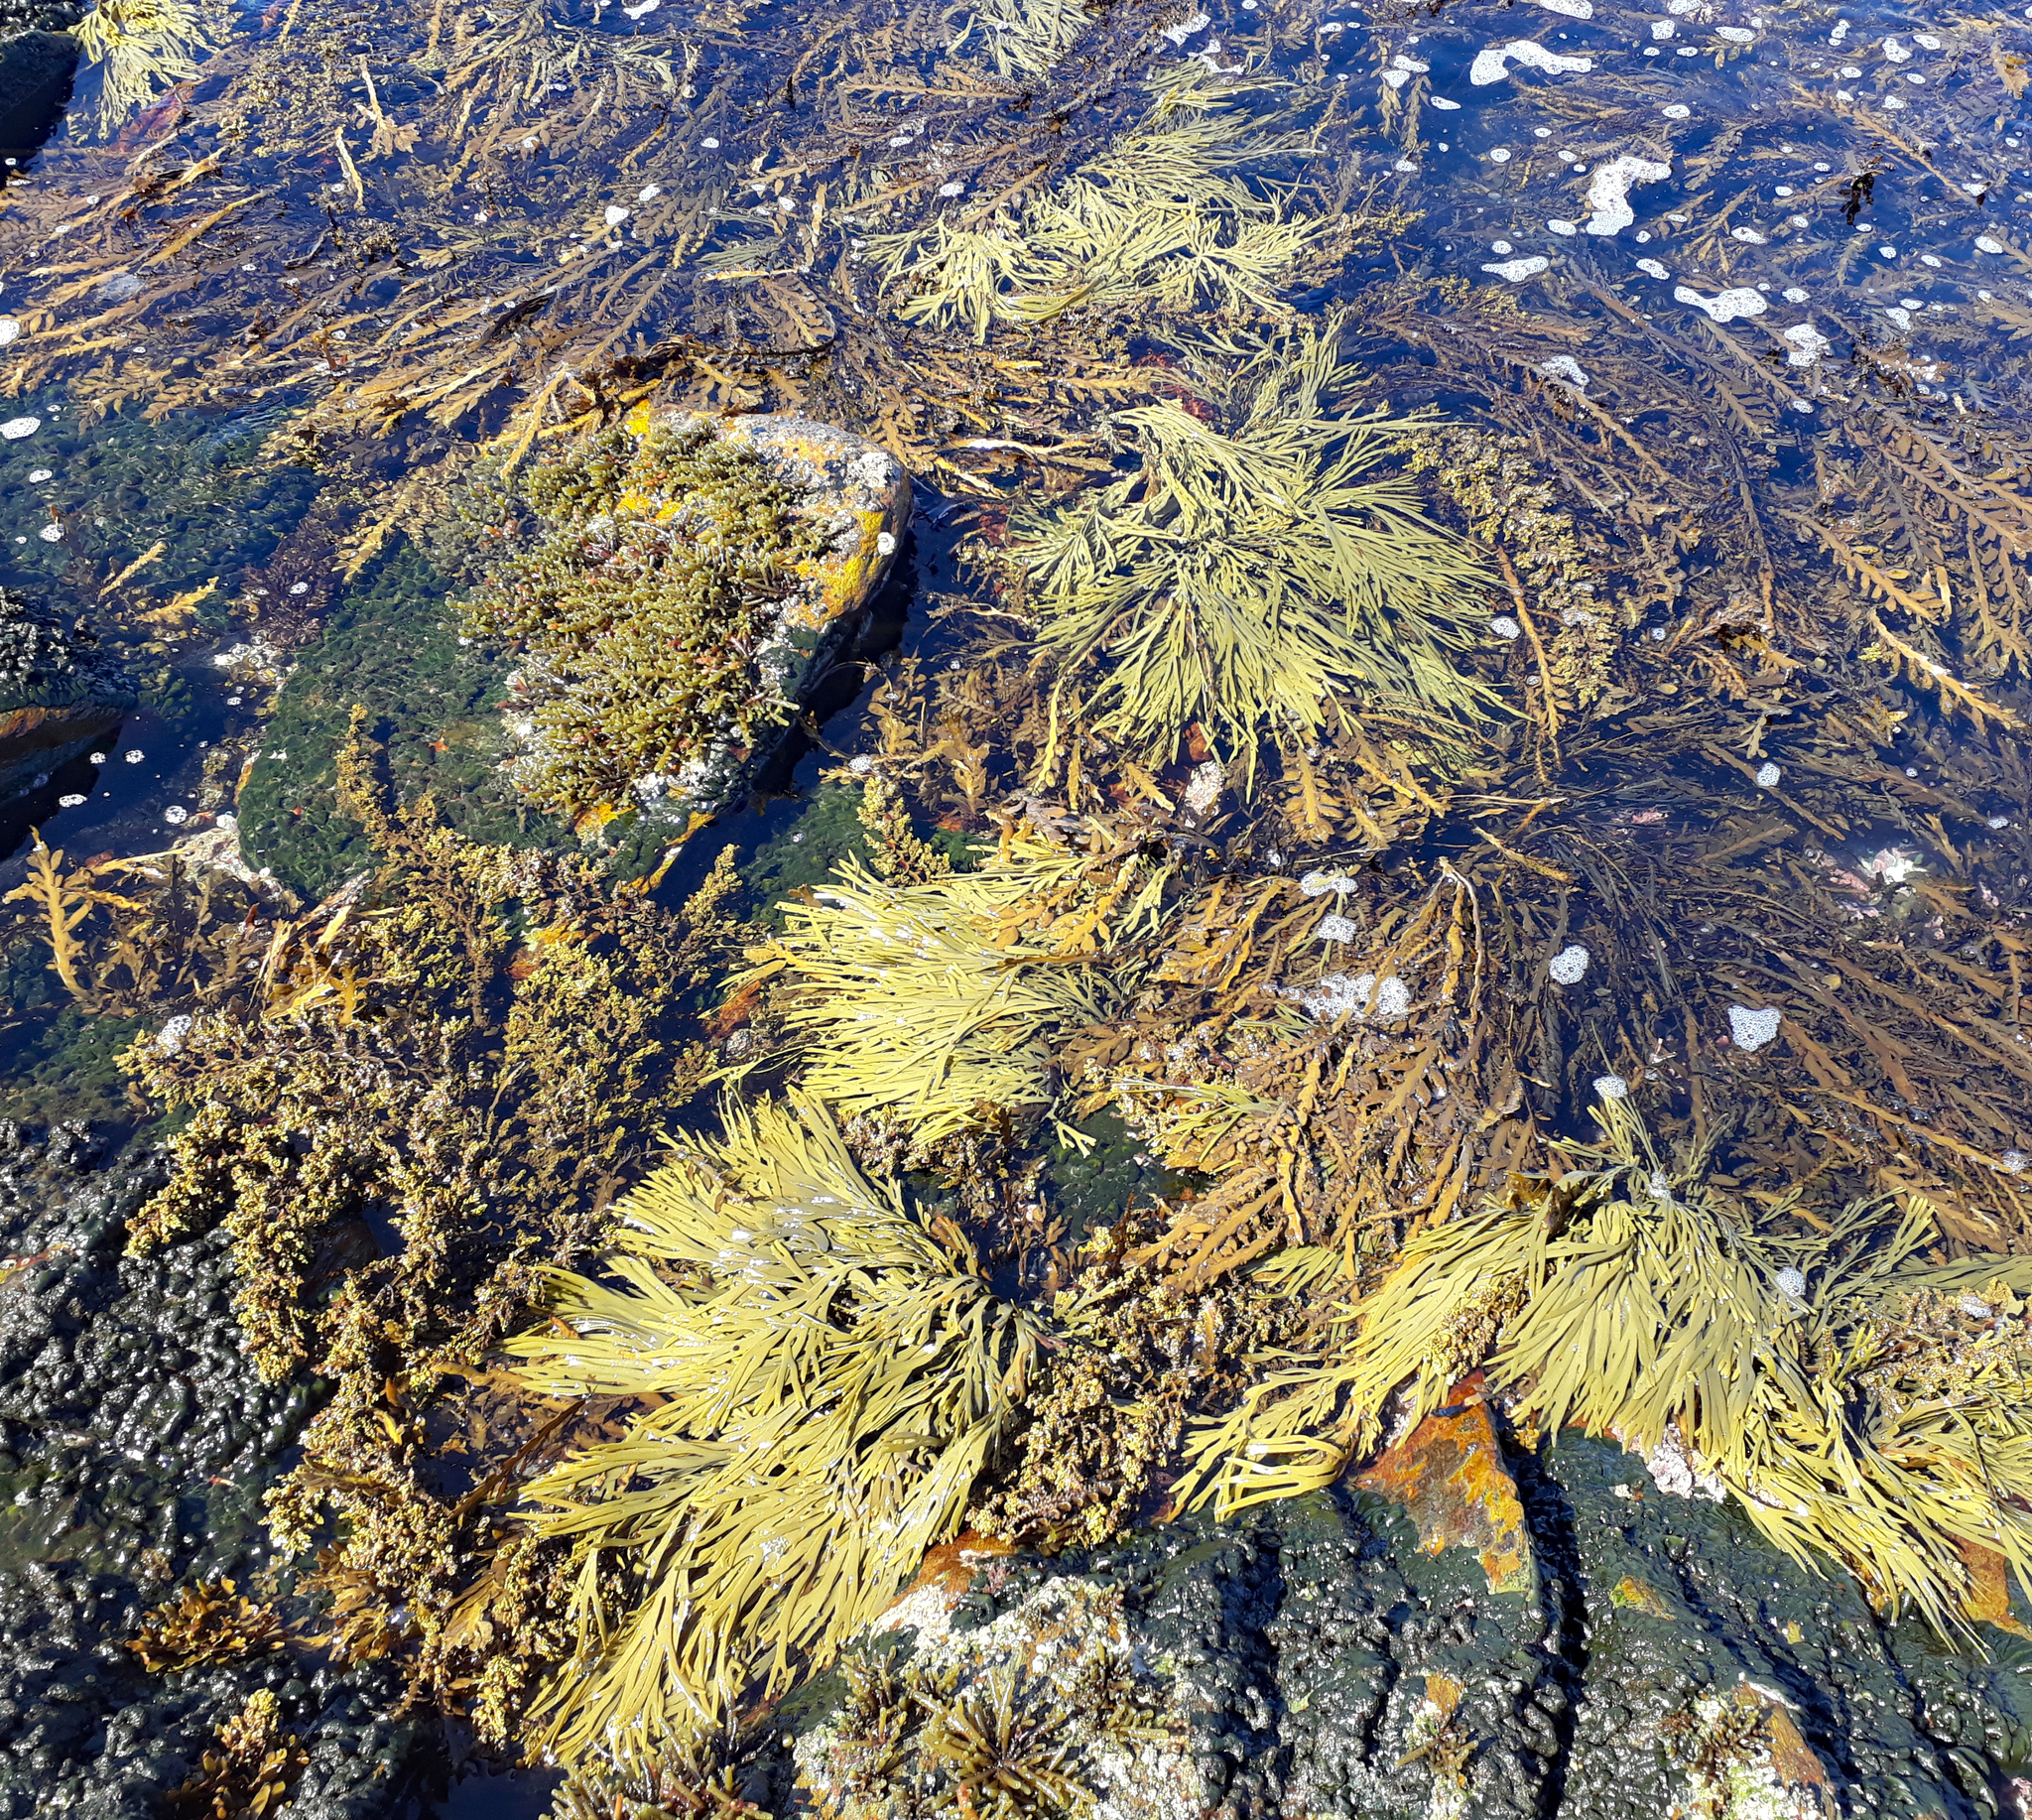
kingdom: Chromista
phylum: Ochrophyta
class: Phaeophyceae
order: Fucales
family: Xiphophoraceae
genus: Xiphophora
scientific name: Xiphophora gladiata
